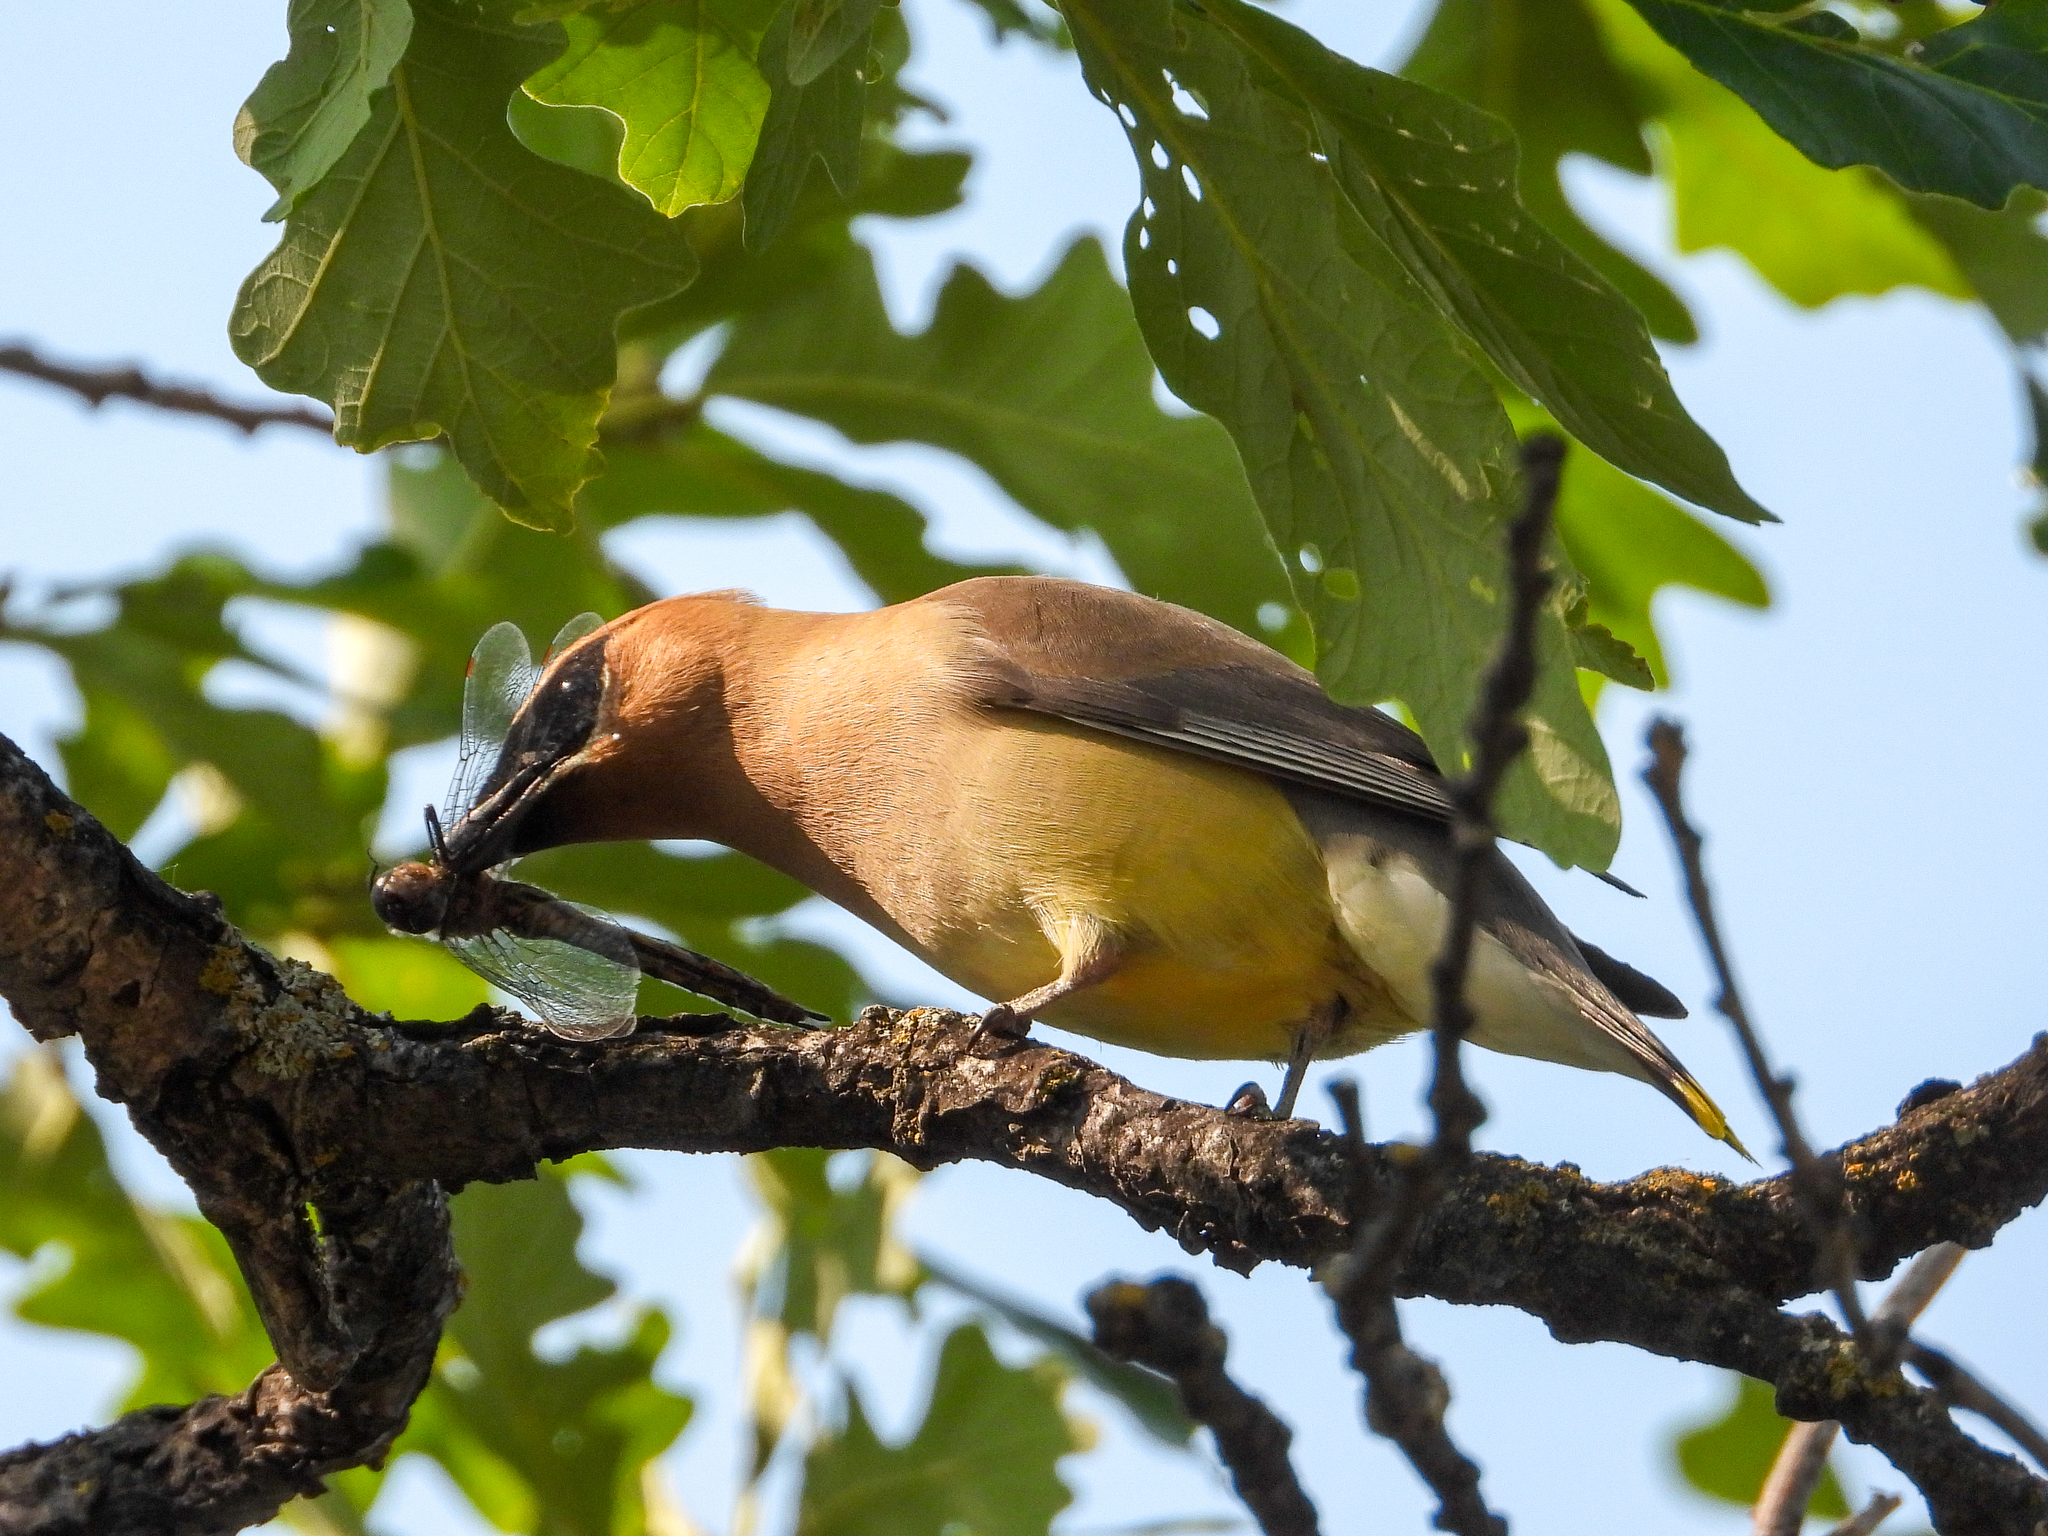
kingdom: Animalia
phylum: Chordata
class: Aves
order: Passeriformes
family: Bombycillidae
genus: Bombycilla
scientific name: Bombycilla cedrorum
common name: Cedar waxwing
